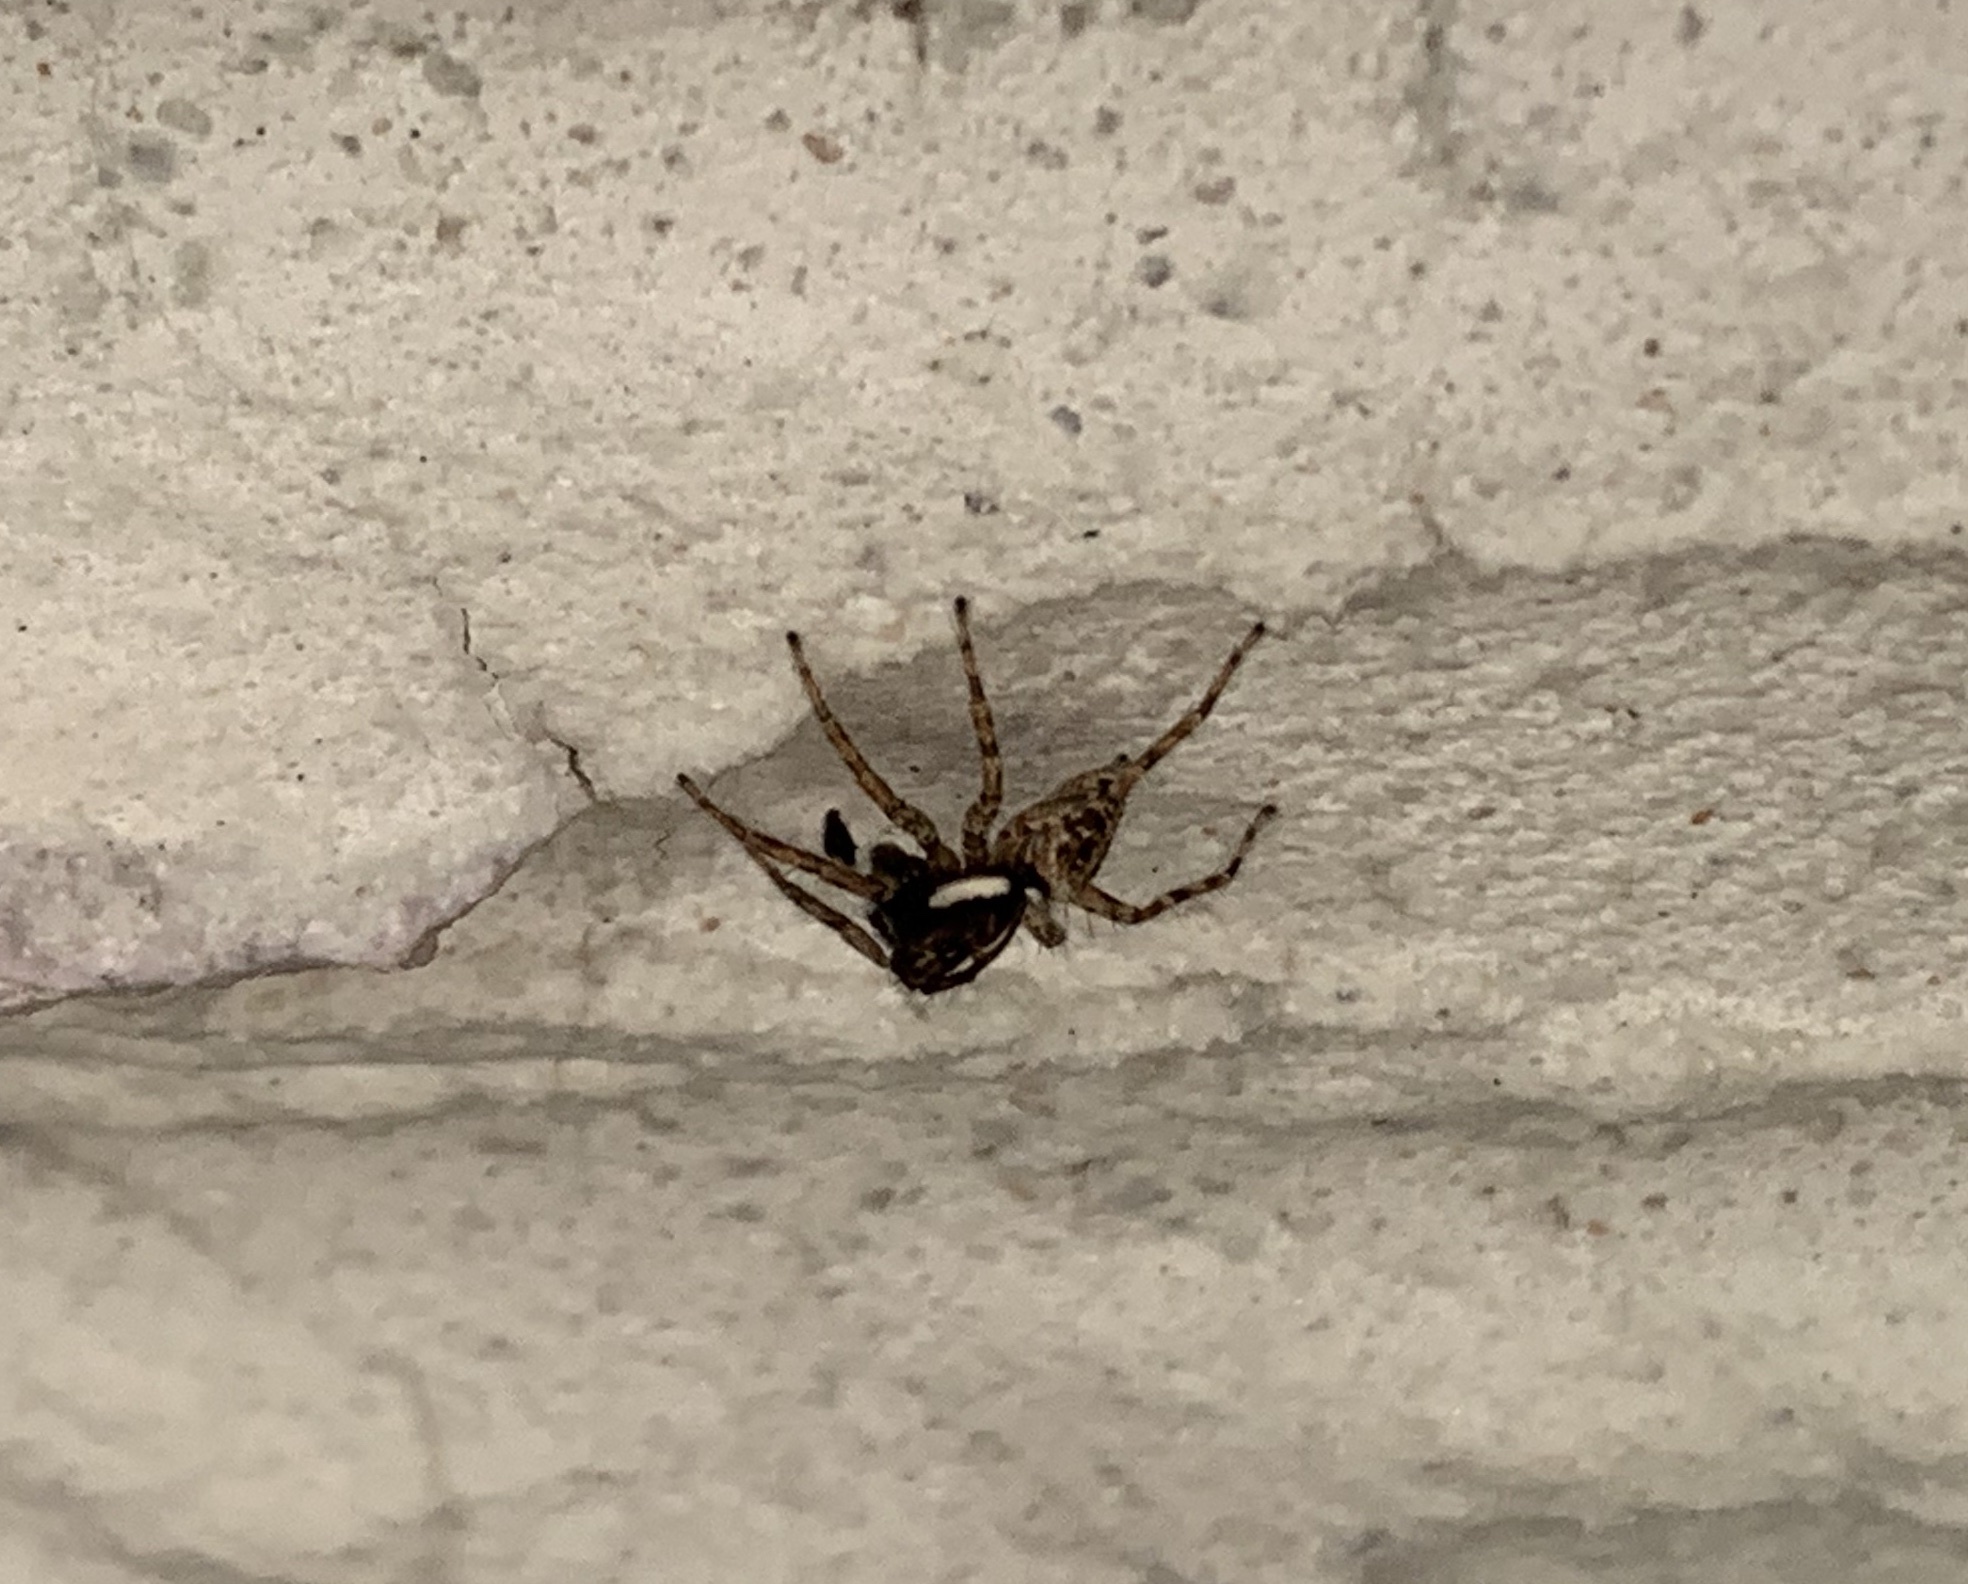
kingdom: Animalia
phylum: Arthropoda
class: Arachnida
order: Araneae
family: Salticidae
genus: Menemerus
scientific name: Menemerus semilimbatus
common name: Jumping spider
